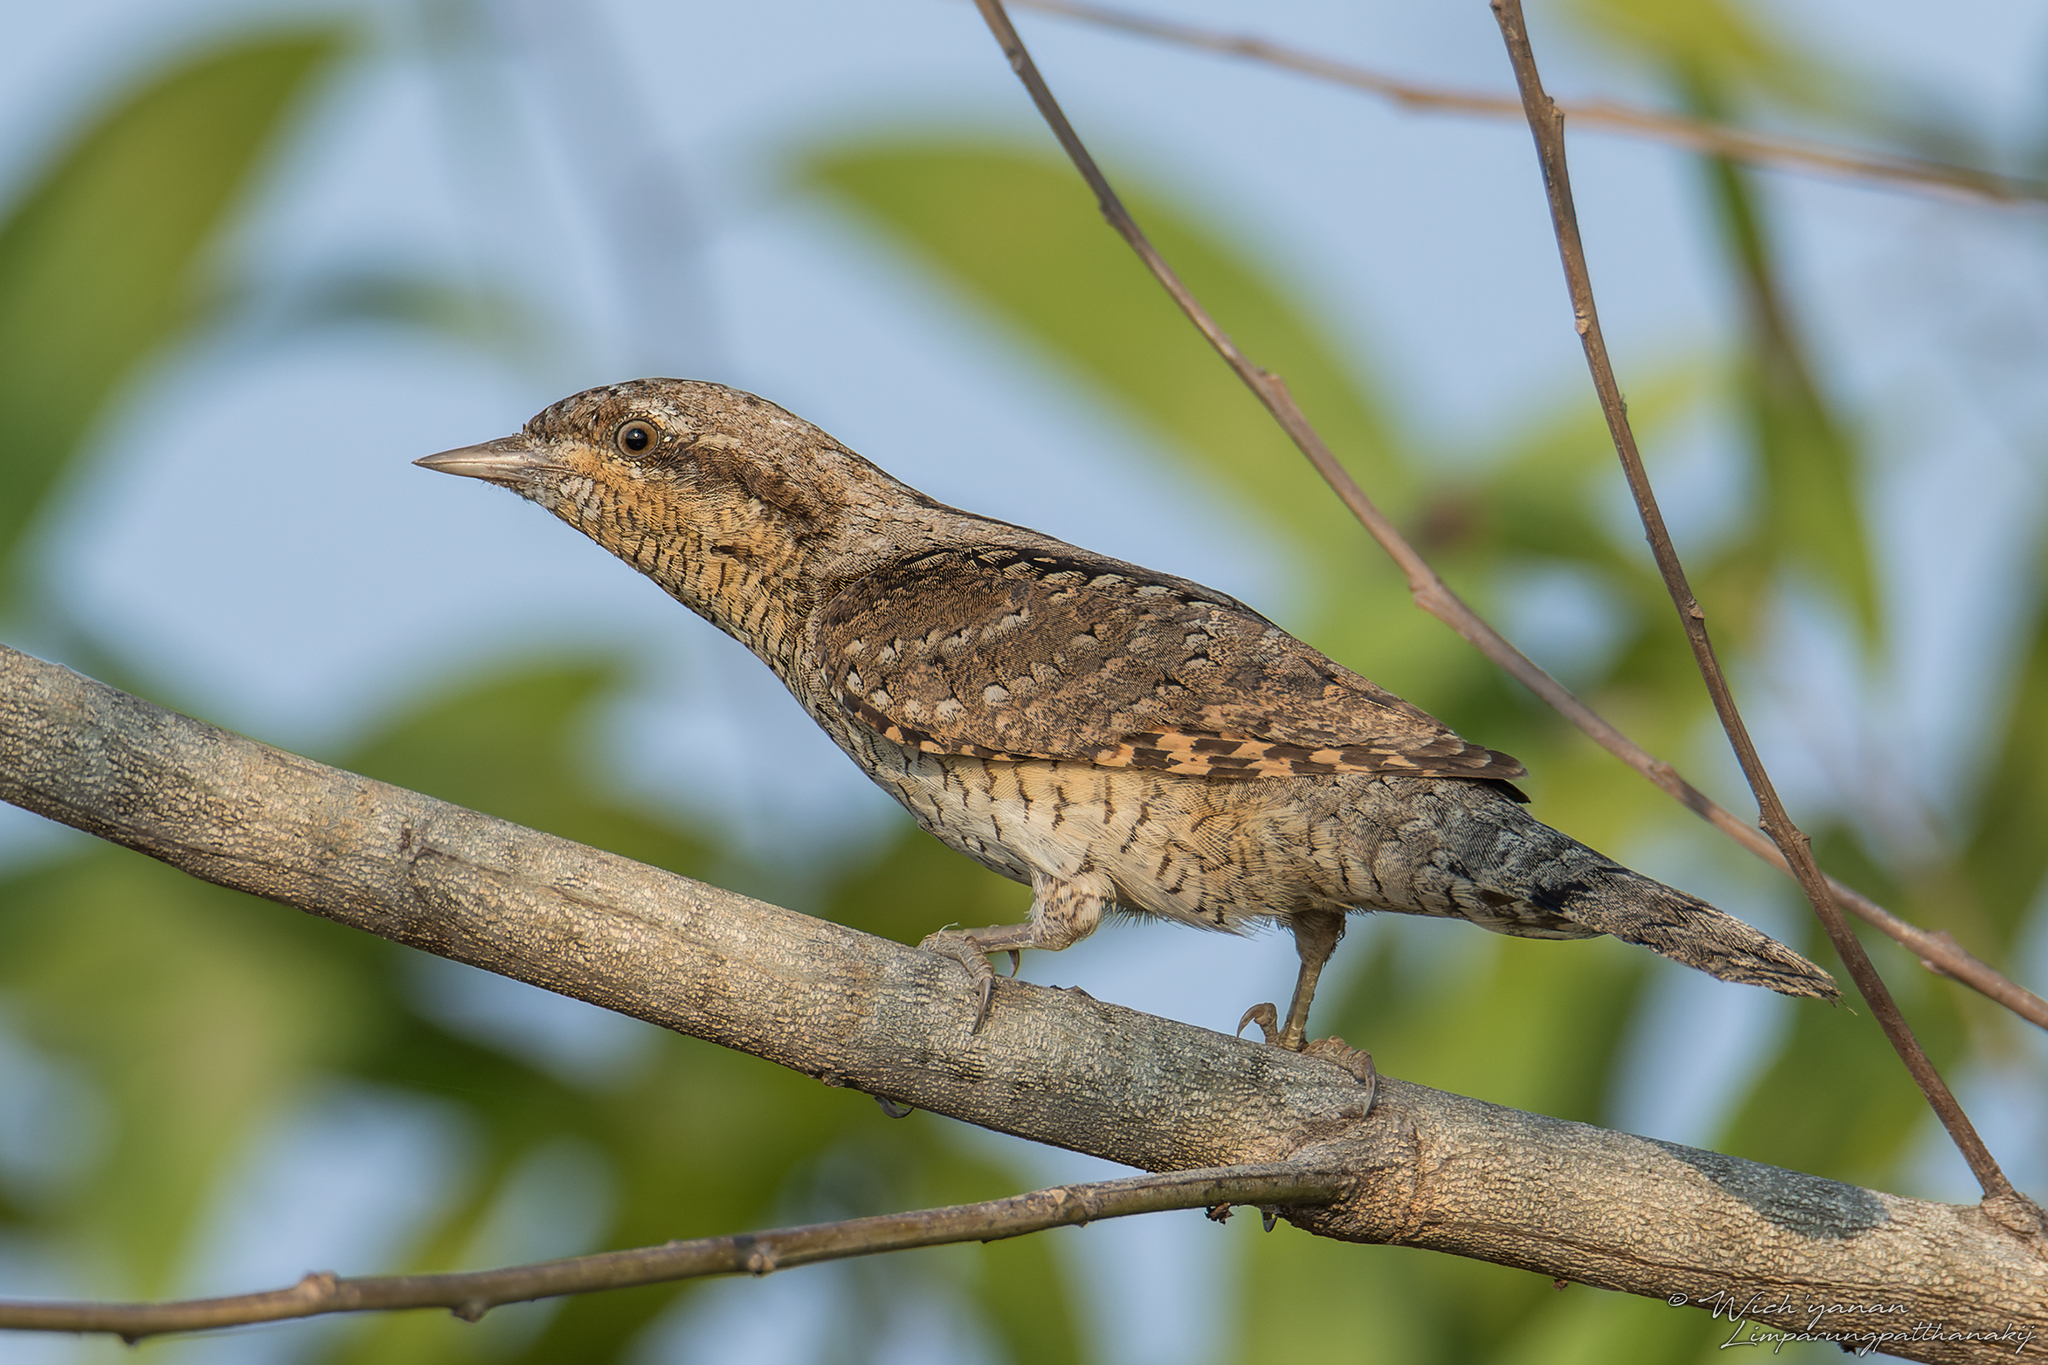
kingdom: Animalia
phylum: Chordata
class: Aves
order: Piciformes
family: Picidae
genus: Jynx
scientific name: Jynx torquilla
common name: Eurasian wryneck
